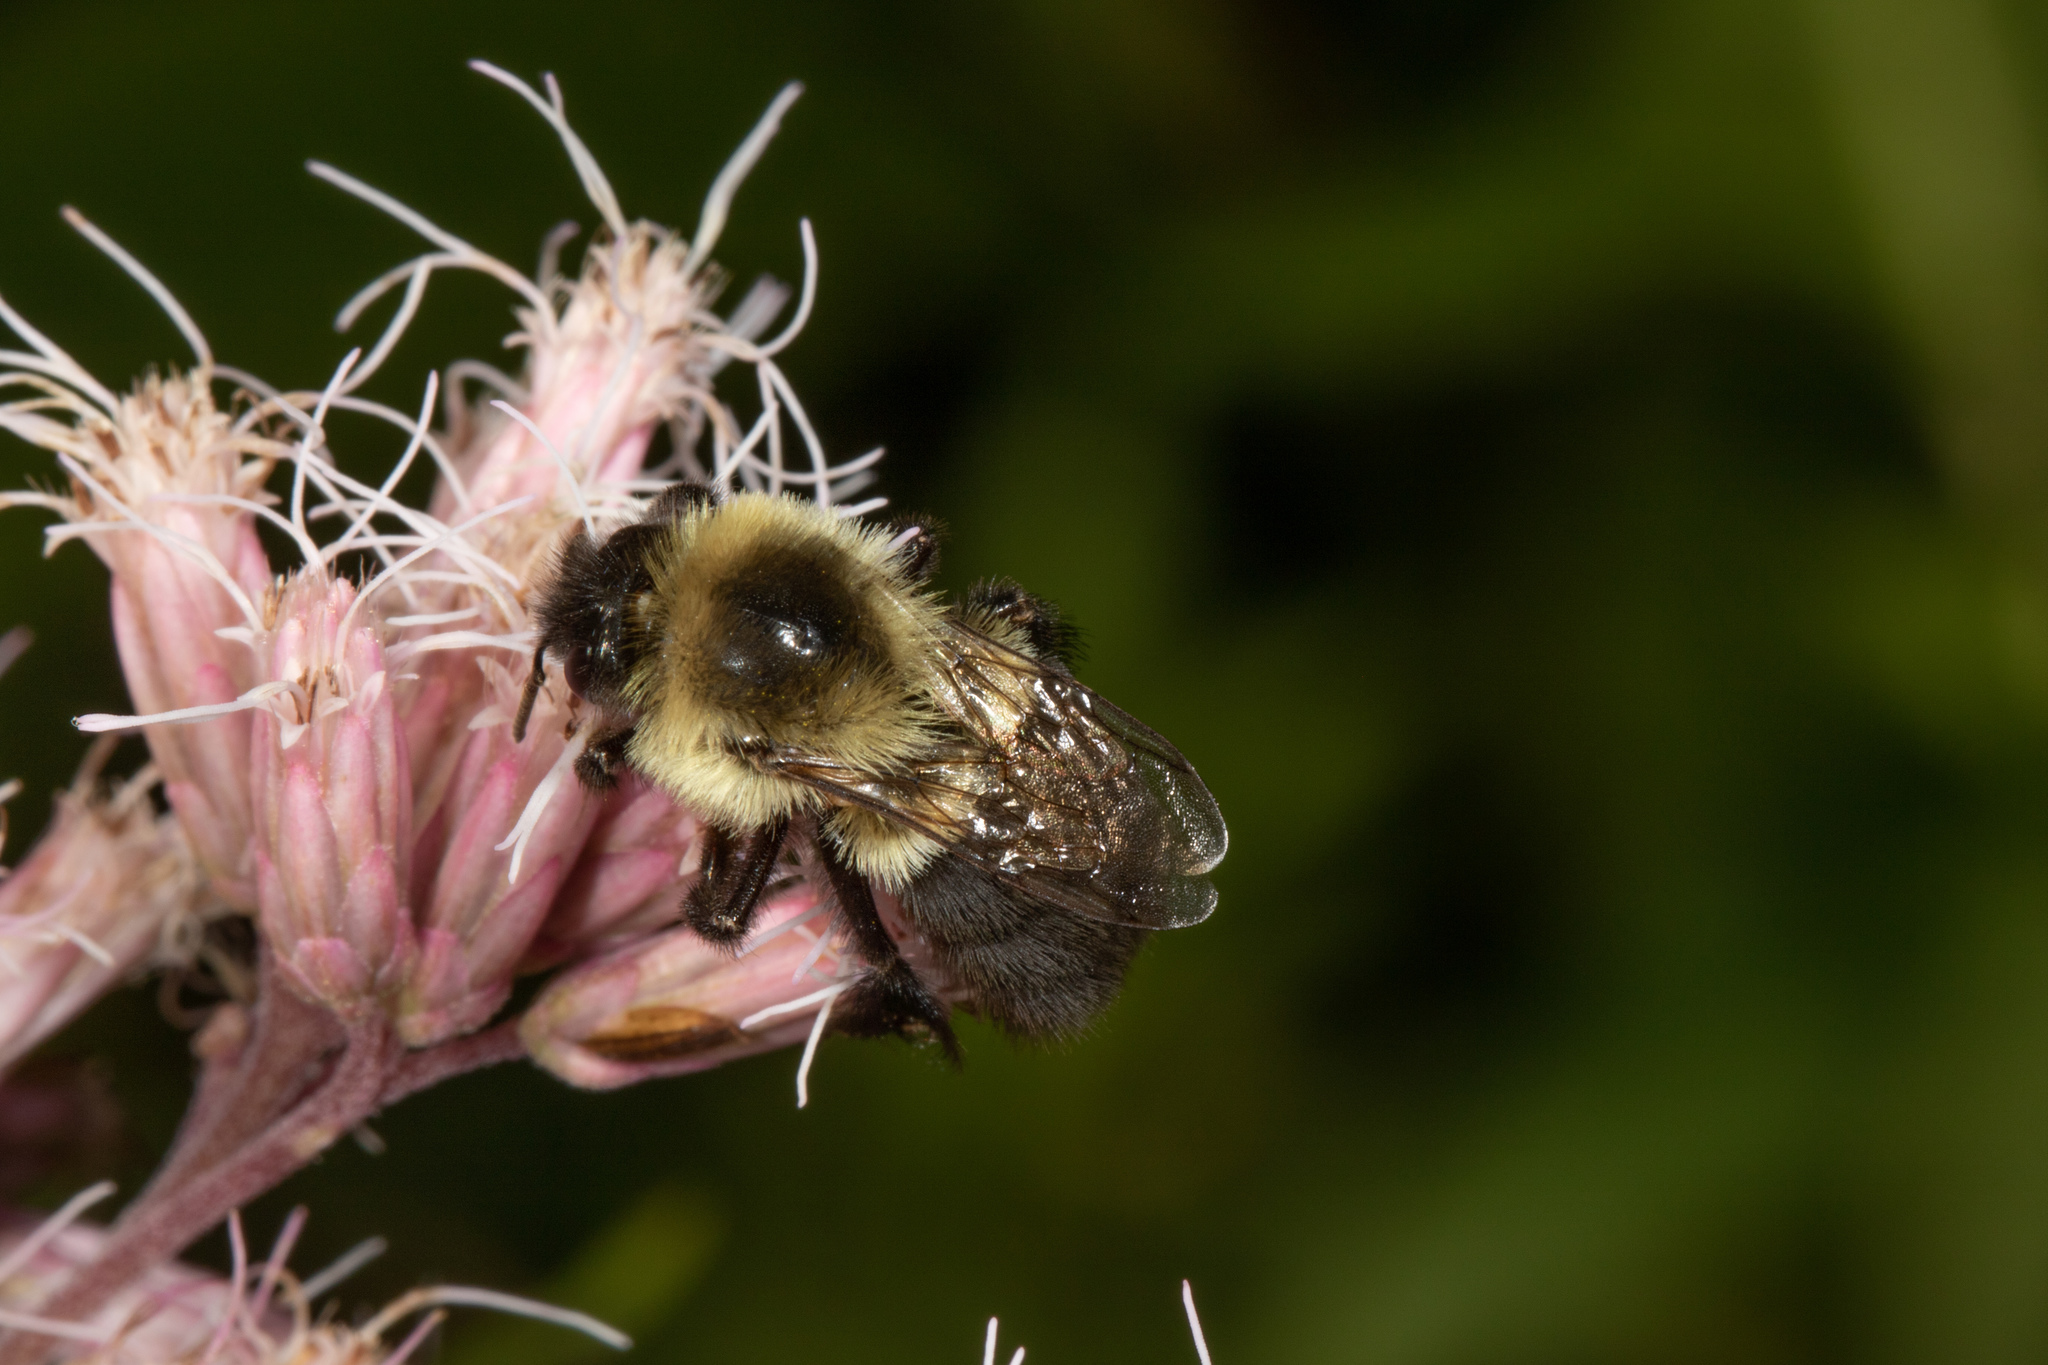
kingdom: Animalia
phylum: Arthropoda
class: Insecta
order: Hymenoptera
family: Apidae
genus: Bombus
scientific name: Bombus impatiens
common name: Common eastern bumble bee
